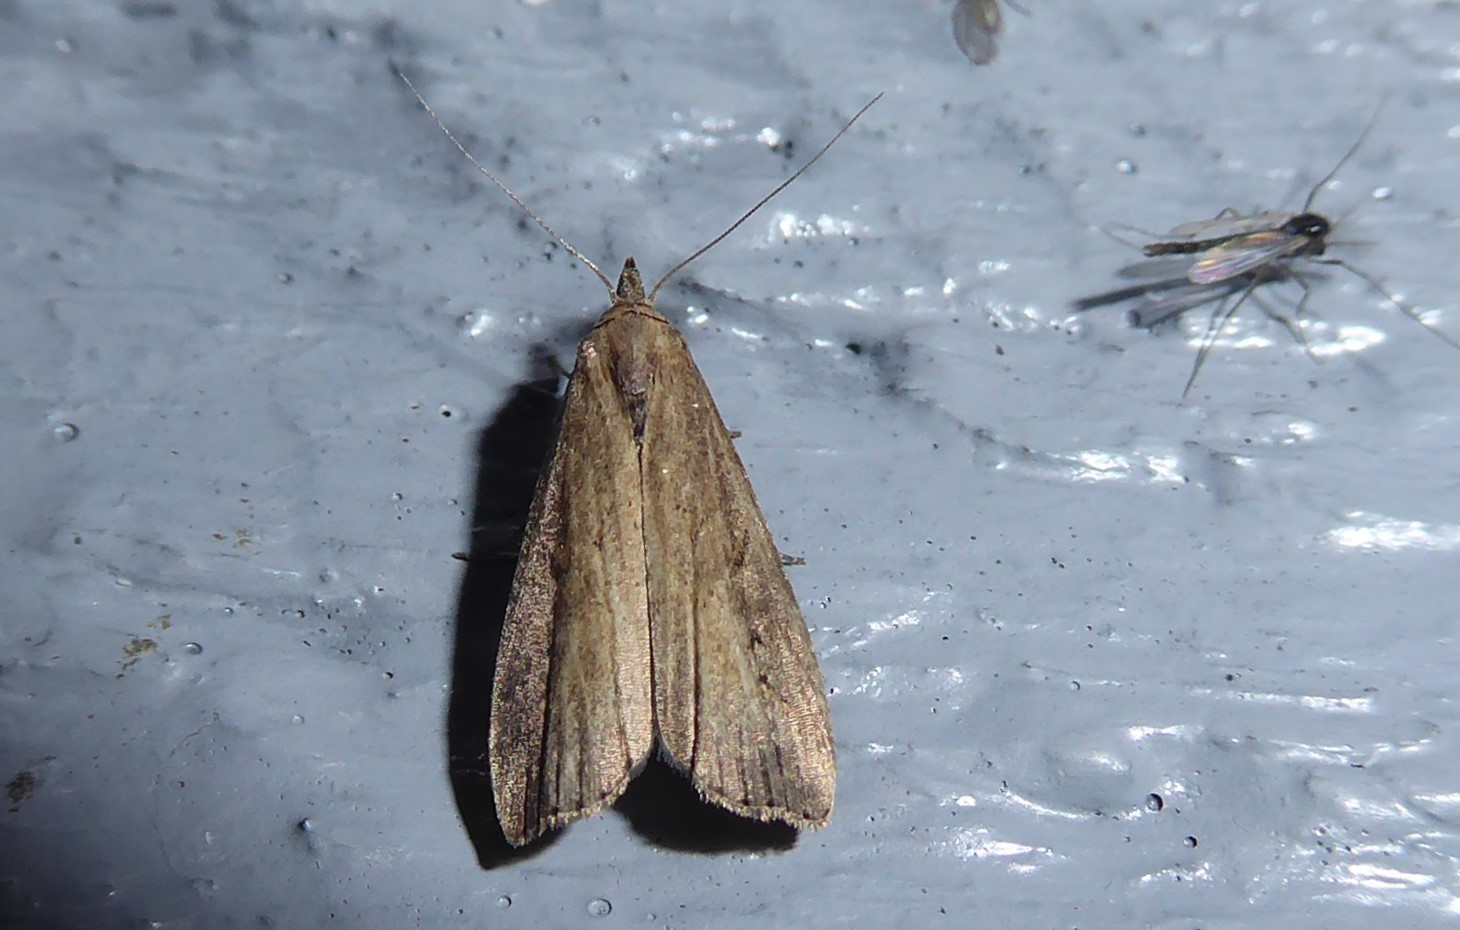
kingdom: Animalia
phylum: Arthropoda
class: Insecta
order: Lepidoptera
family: Erebidae
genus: Schrankia
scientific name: Schrankia costaestrigalis
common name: Pinion-streaked snout
